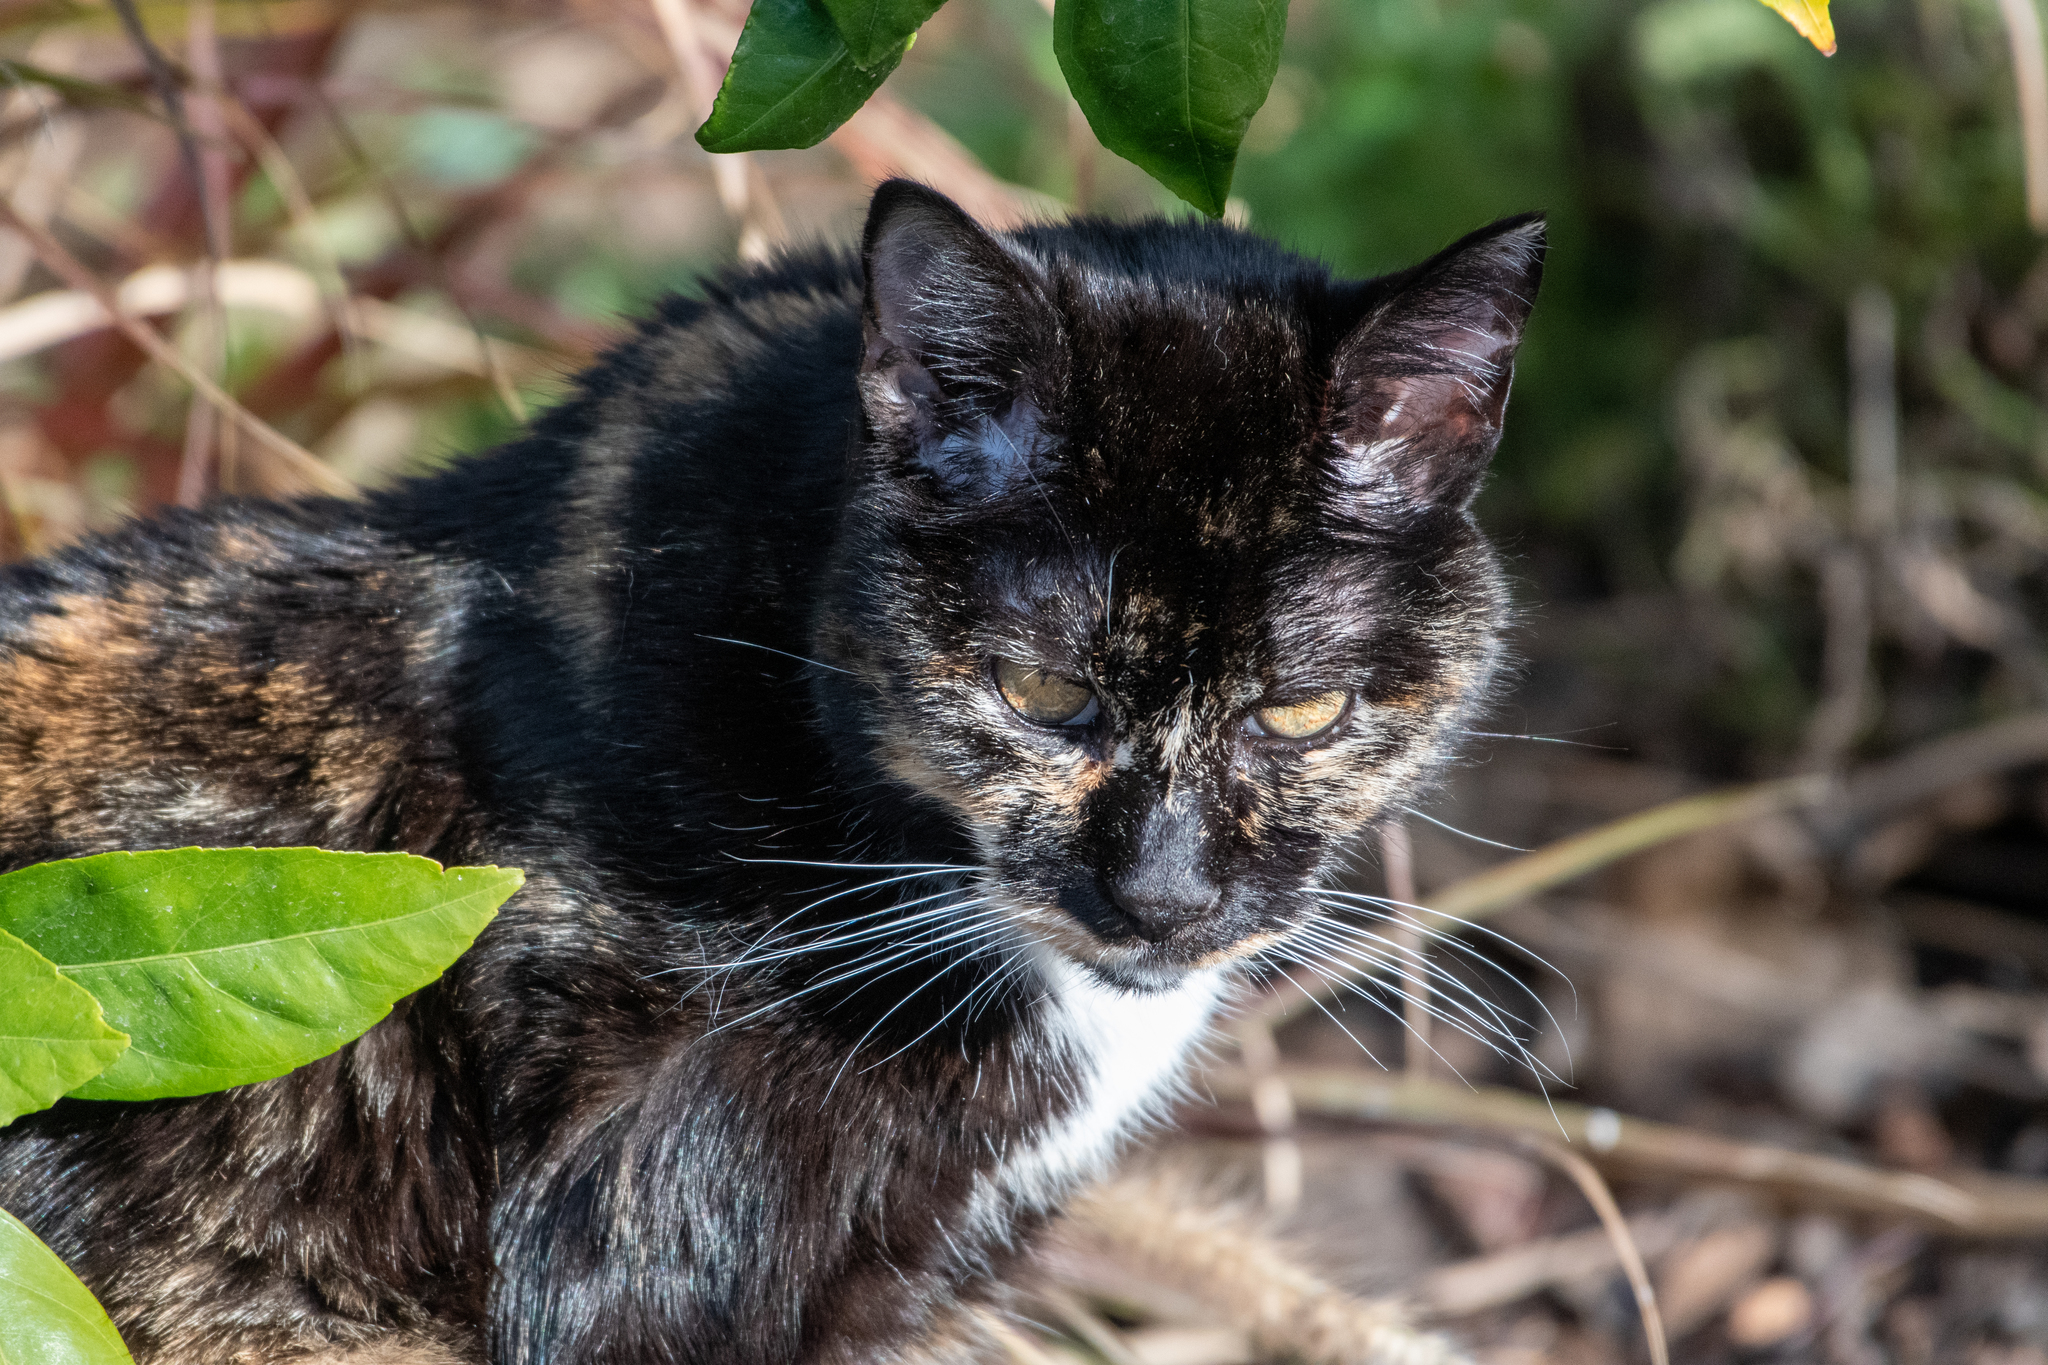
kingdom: Animalia
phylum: Chordata
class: Mammalia
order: Carnivora
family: Felidae
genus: Felis
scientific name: Felis catus
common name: Domestic cat
